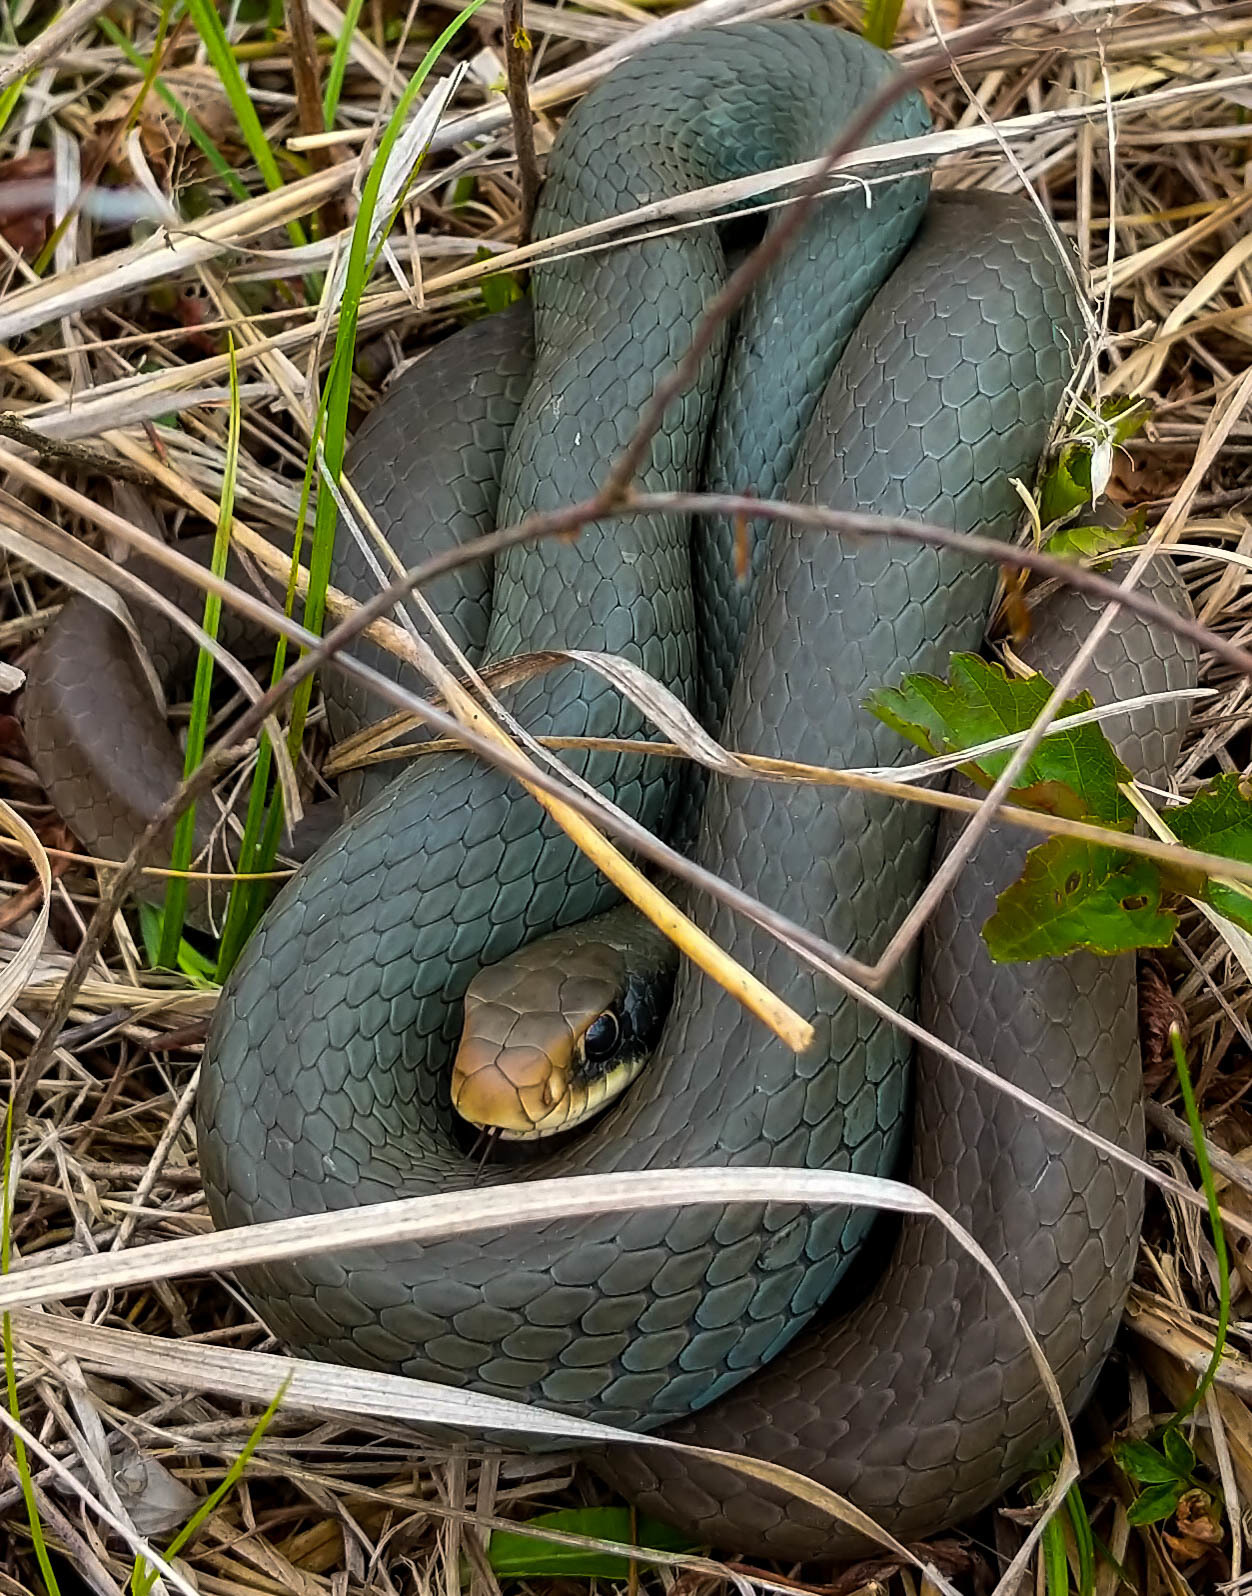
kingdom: Animalia
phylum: Chordata
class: Squamata
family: Colubridae
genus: Coluber
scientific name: Coluber constrictor
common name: Eastern racer
